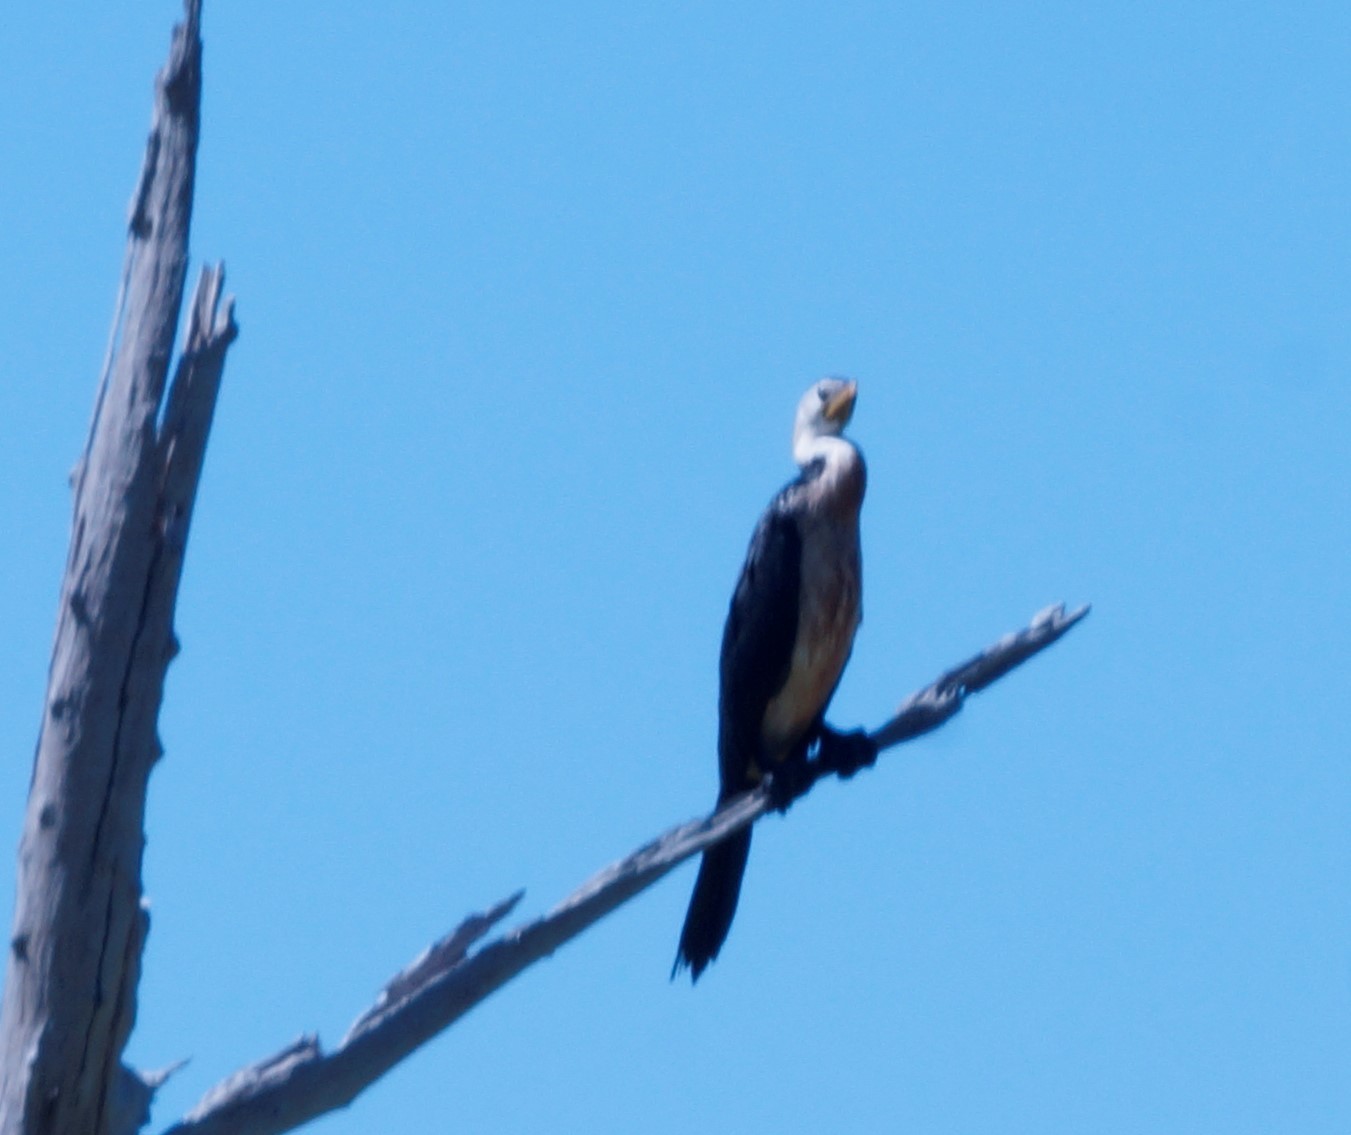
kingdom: Animalia
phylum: Chordata
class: Aves
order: Suliformes
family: Phalacrocoracidae
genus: Microcarbo
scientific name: Microcarbo melanoleucos
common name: Little pied cormorant
